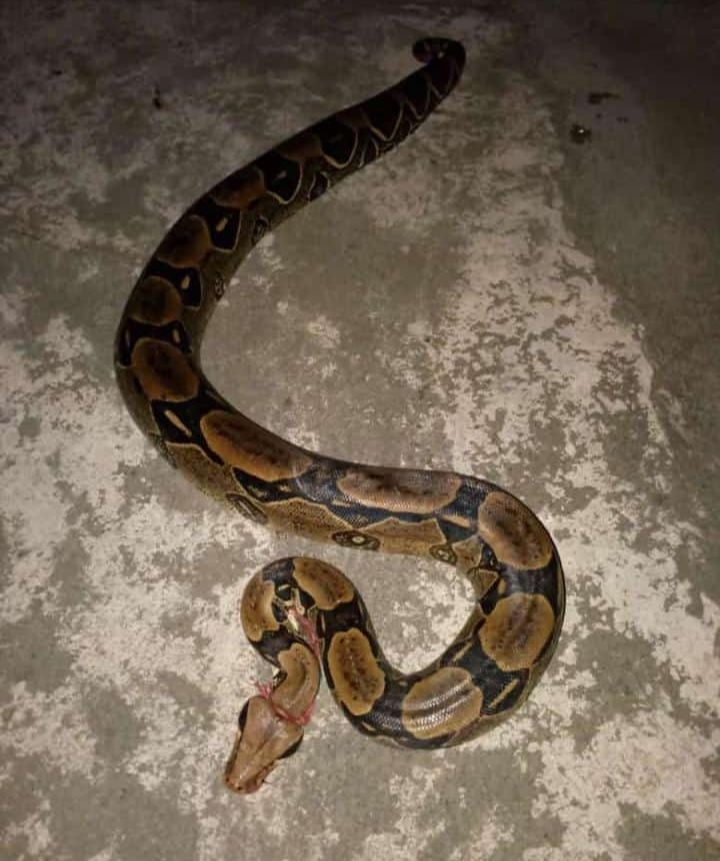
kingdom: Animalia
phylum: Chordata
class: Squamata
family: Boidae
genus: Boa
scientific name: Boa constrictor
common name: Boa constrictor
